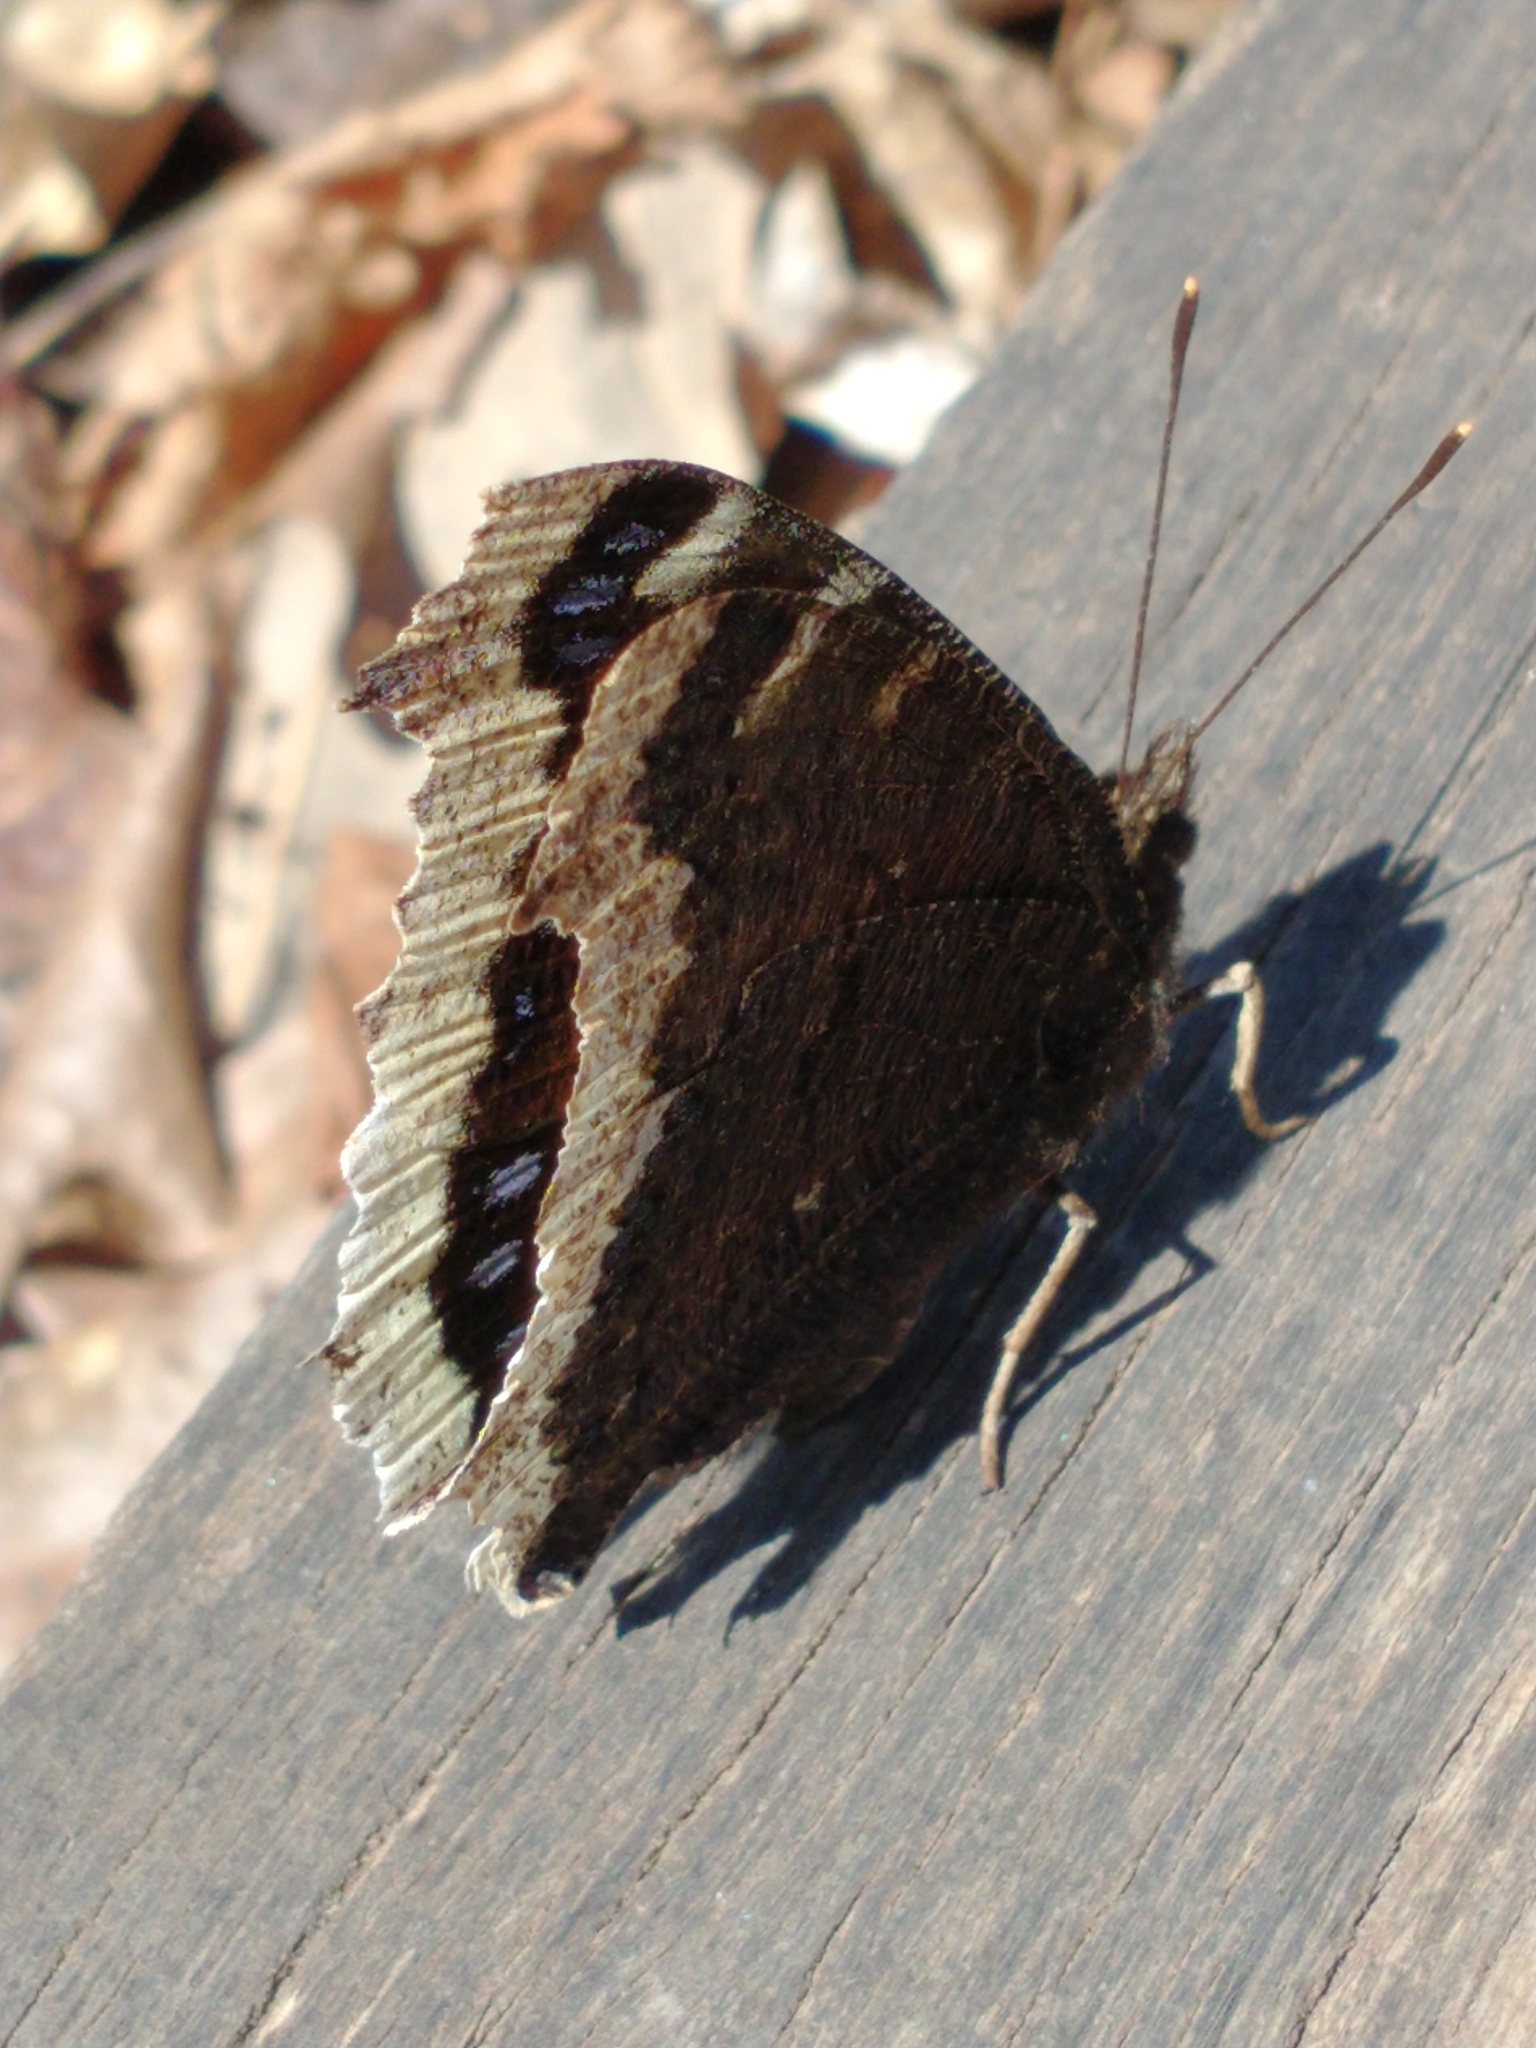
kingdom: Animalia
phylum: Arthropoda
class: Insecta
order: Lepidoptera
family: Nymphalidae
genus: Nymphalis
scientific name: Nymphalis antiopa
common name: Camberwell beauty
